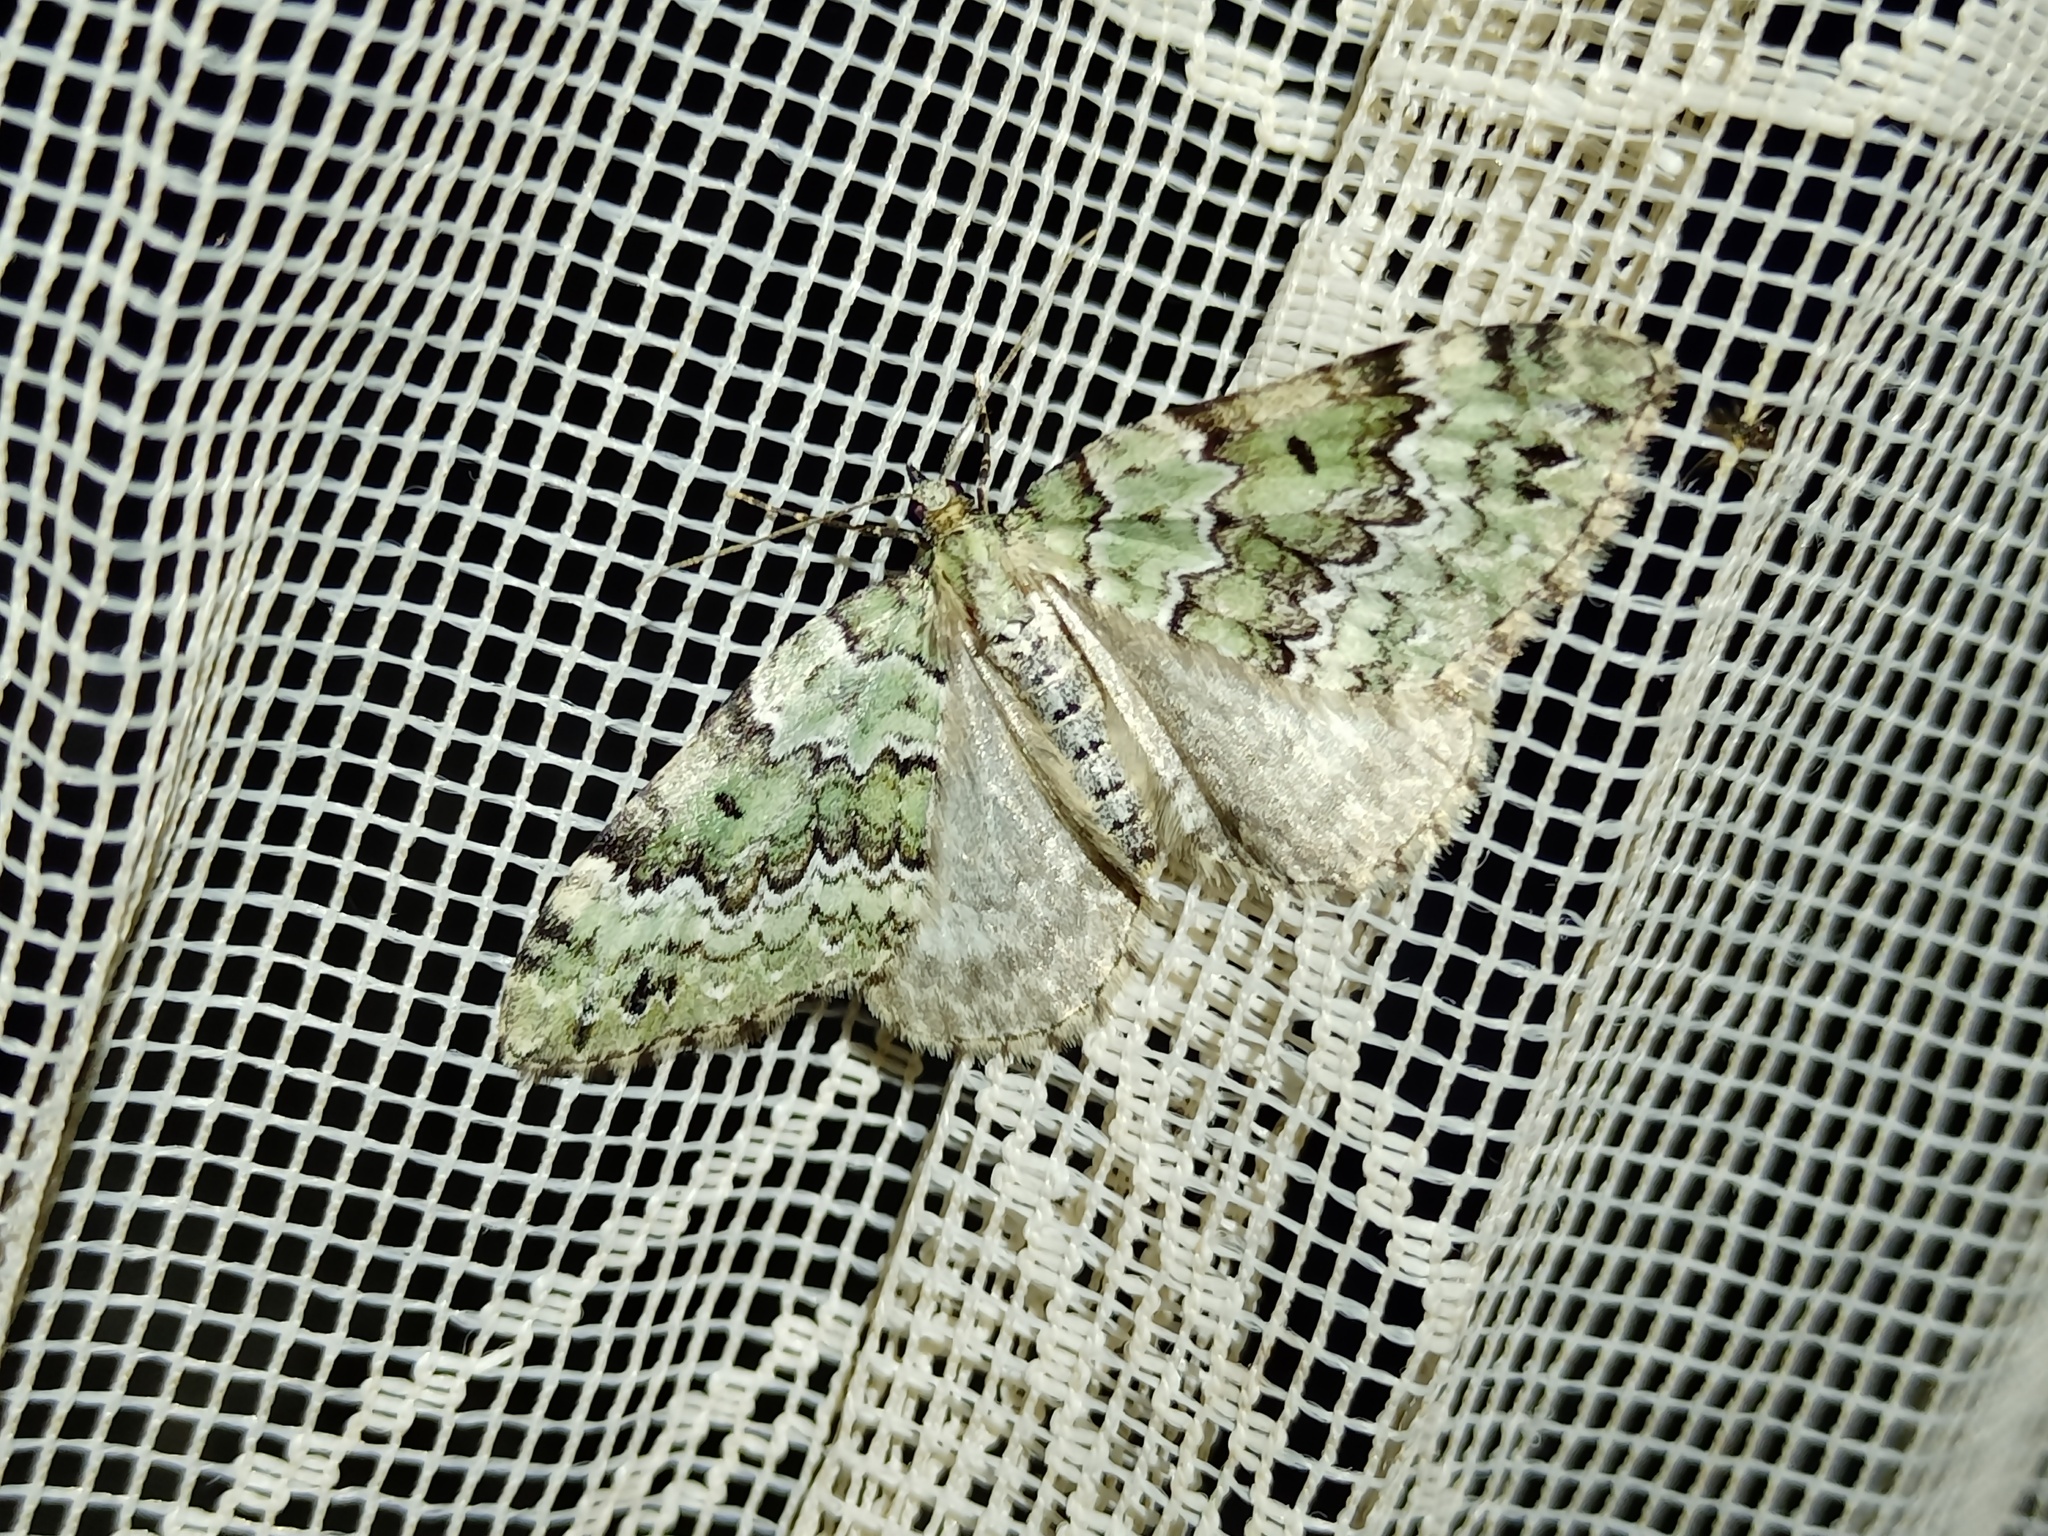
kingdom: Animalia
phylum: Arthropoda
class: Insecta
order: Lepidoptera
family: Geometridae
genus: Colostygia
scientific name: Colostygia laetaria
